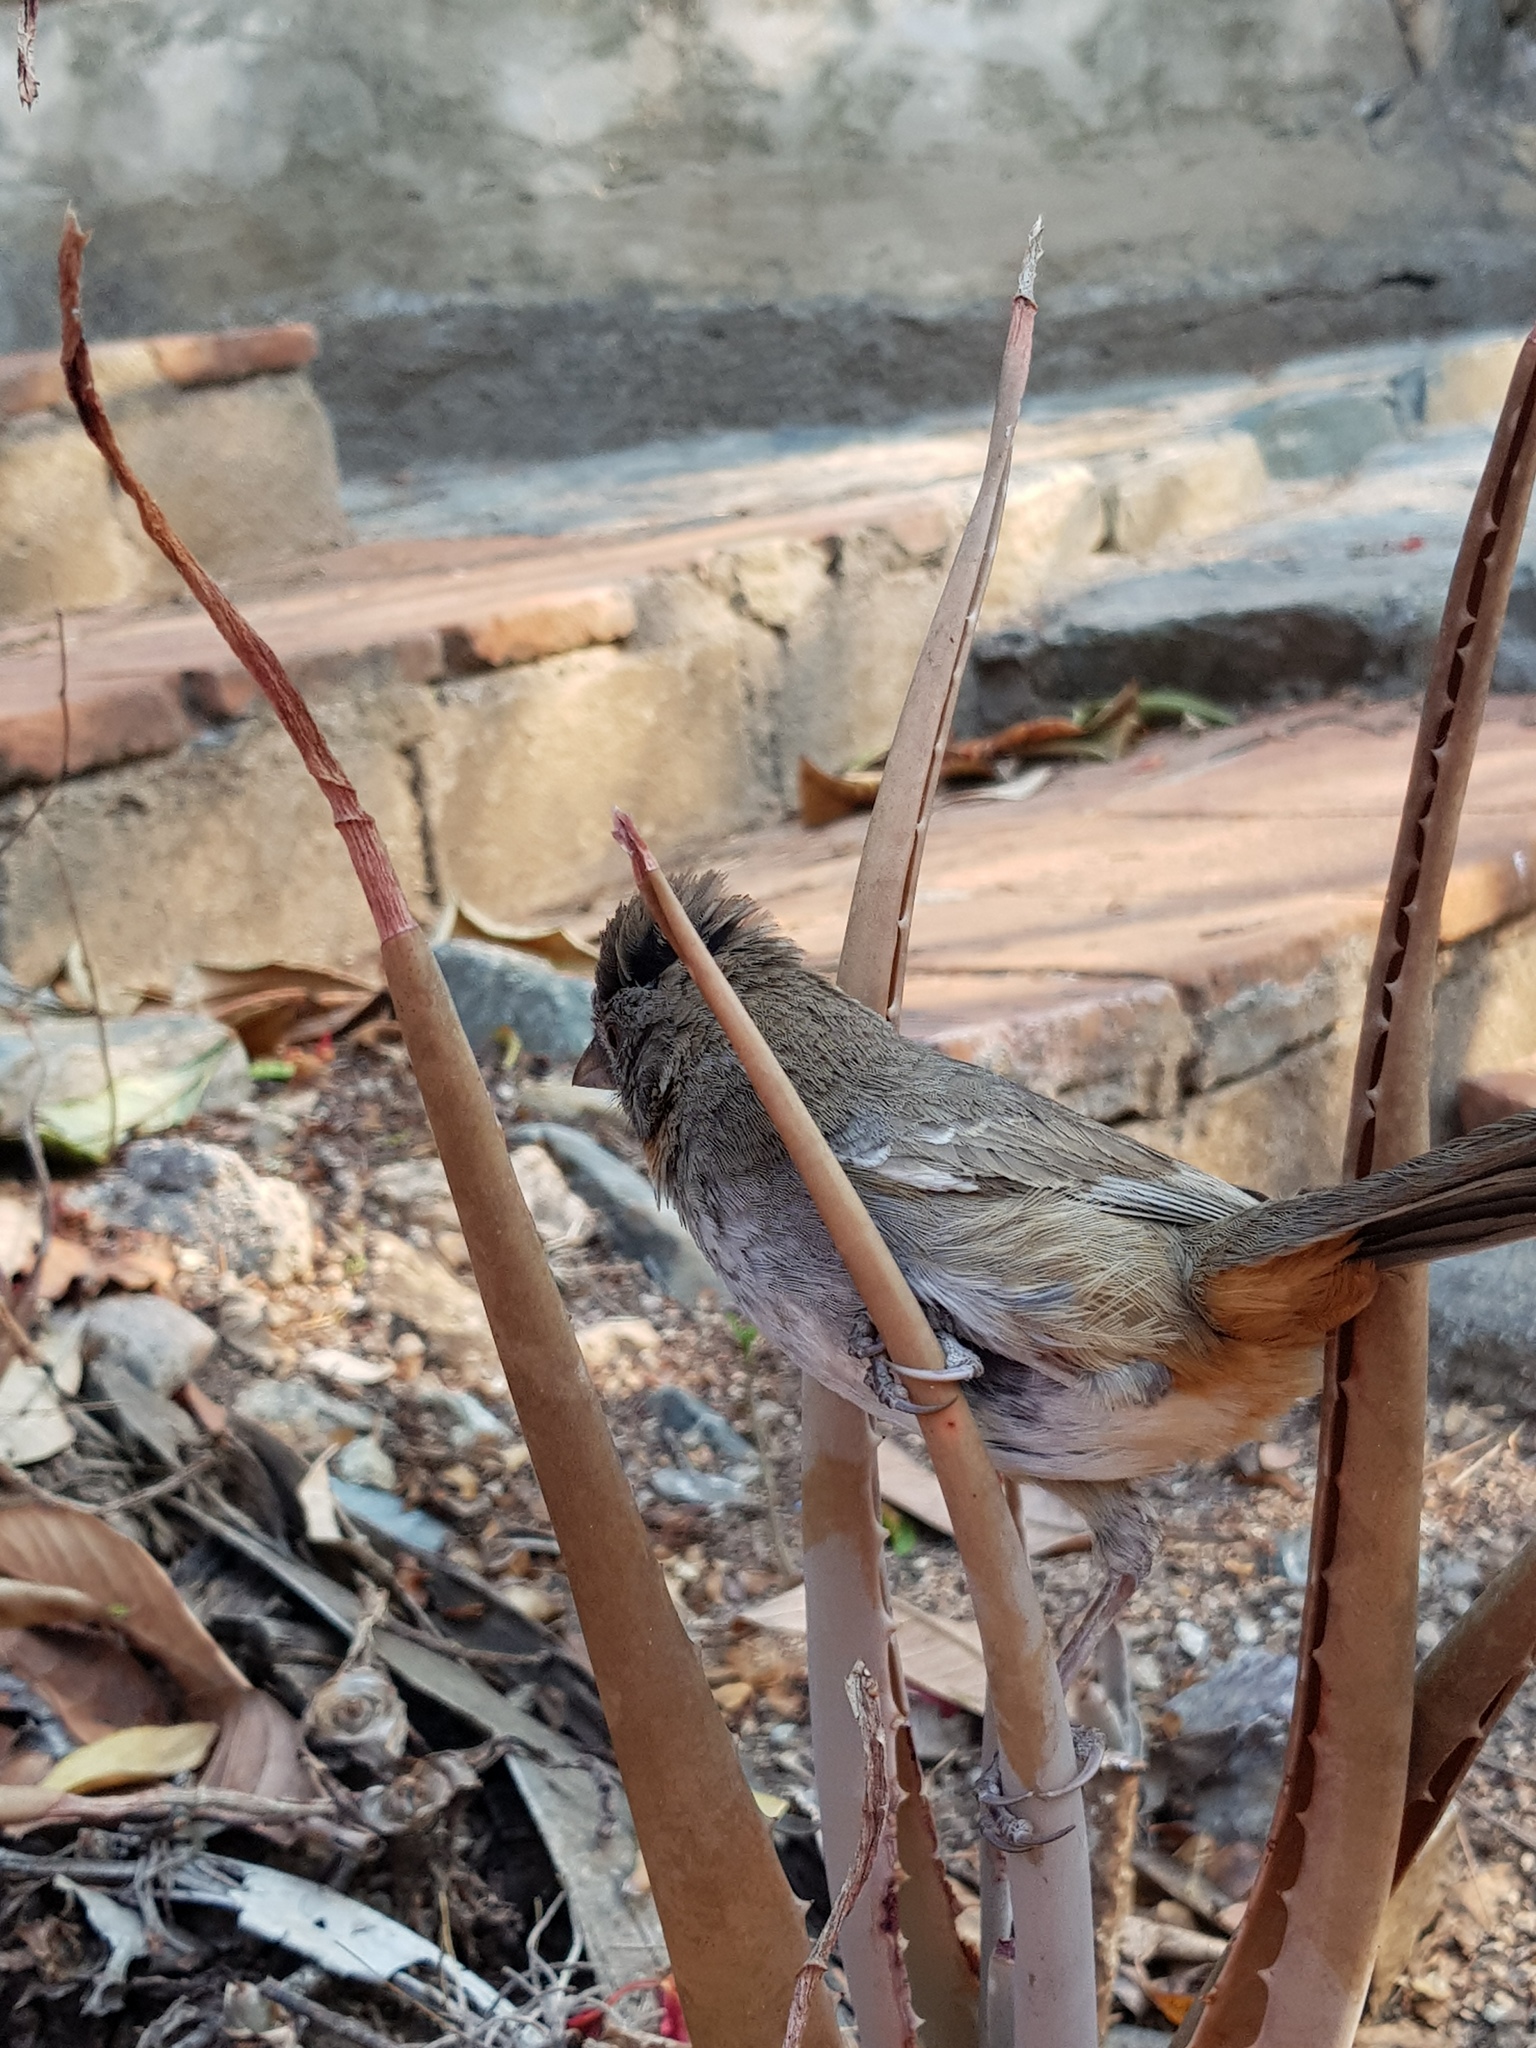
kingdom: Animalia
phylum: Chordata
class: Aves
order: Passeriformes
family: Passerellidae
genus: Melozone
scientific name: Melozone albicollis
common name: White-throated towhee
